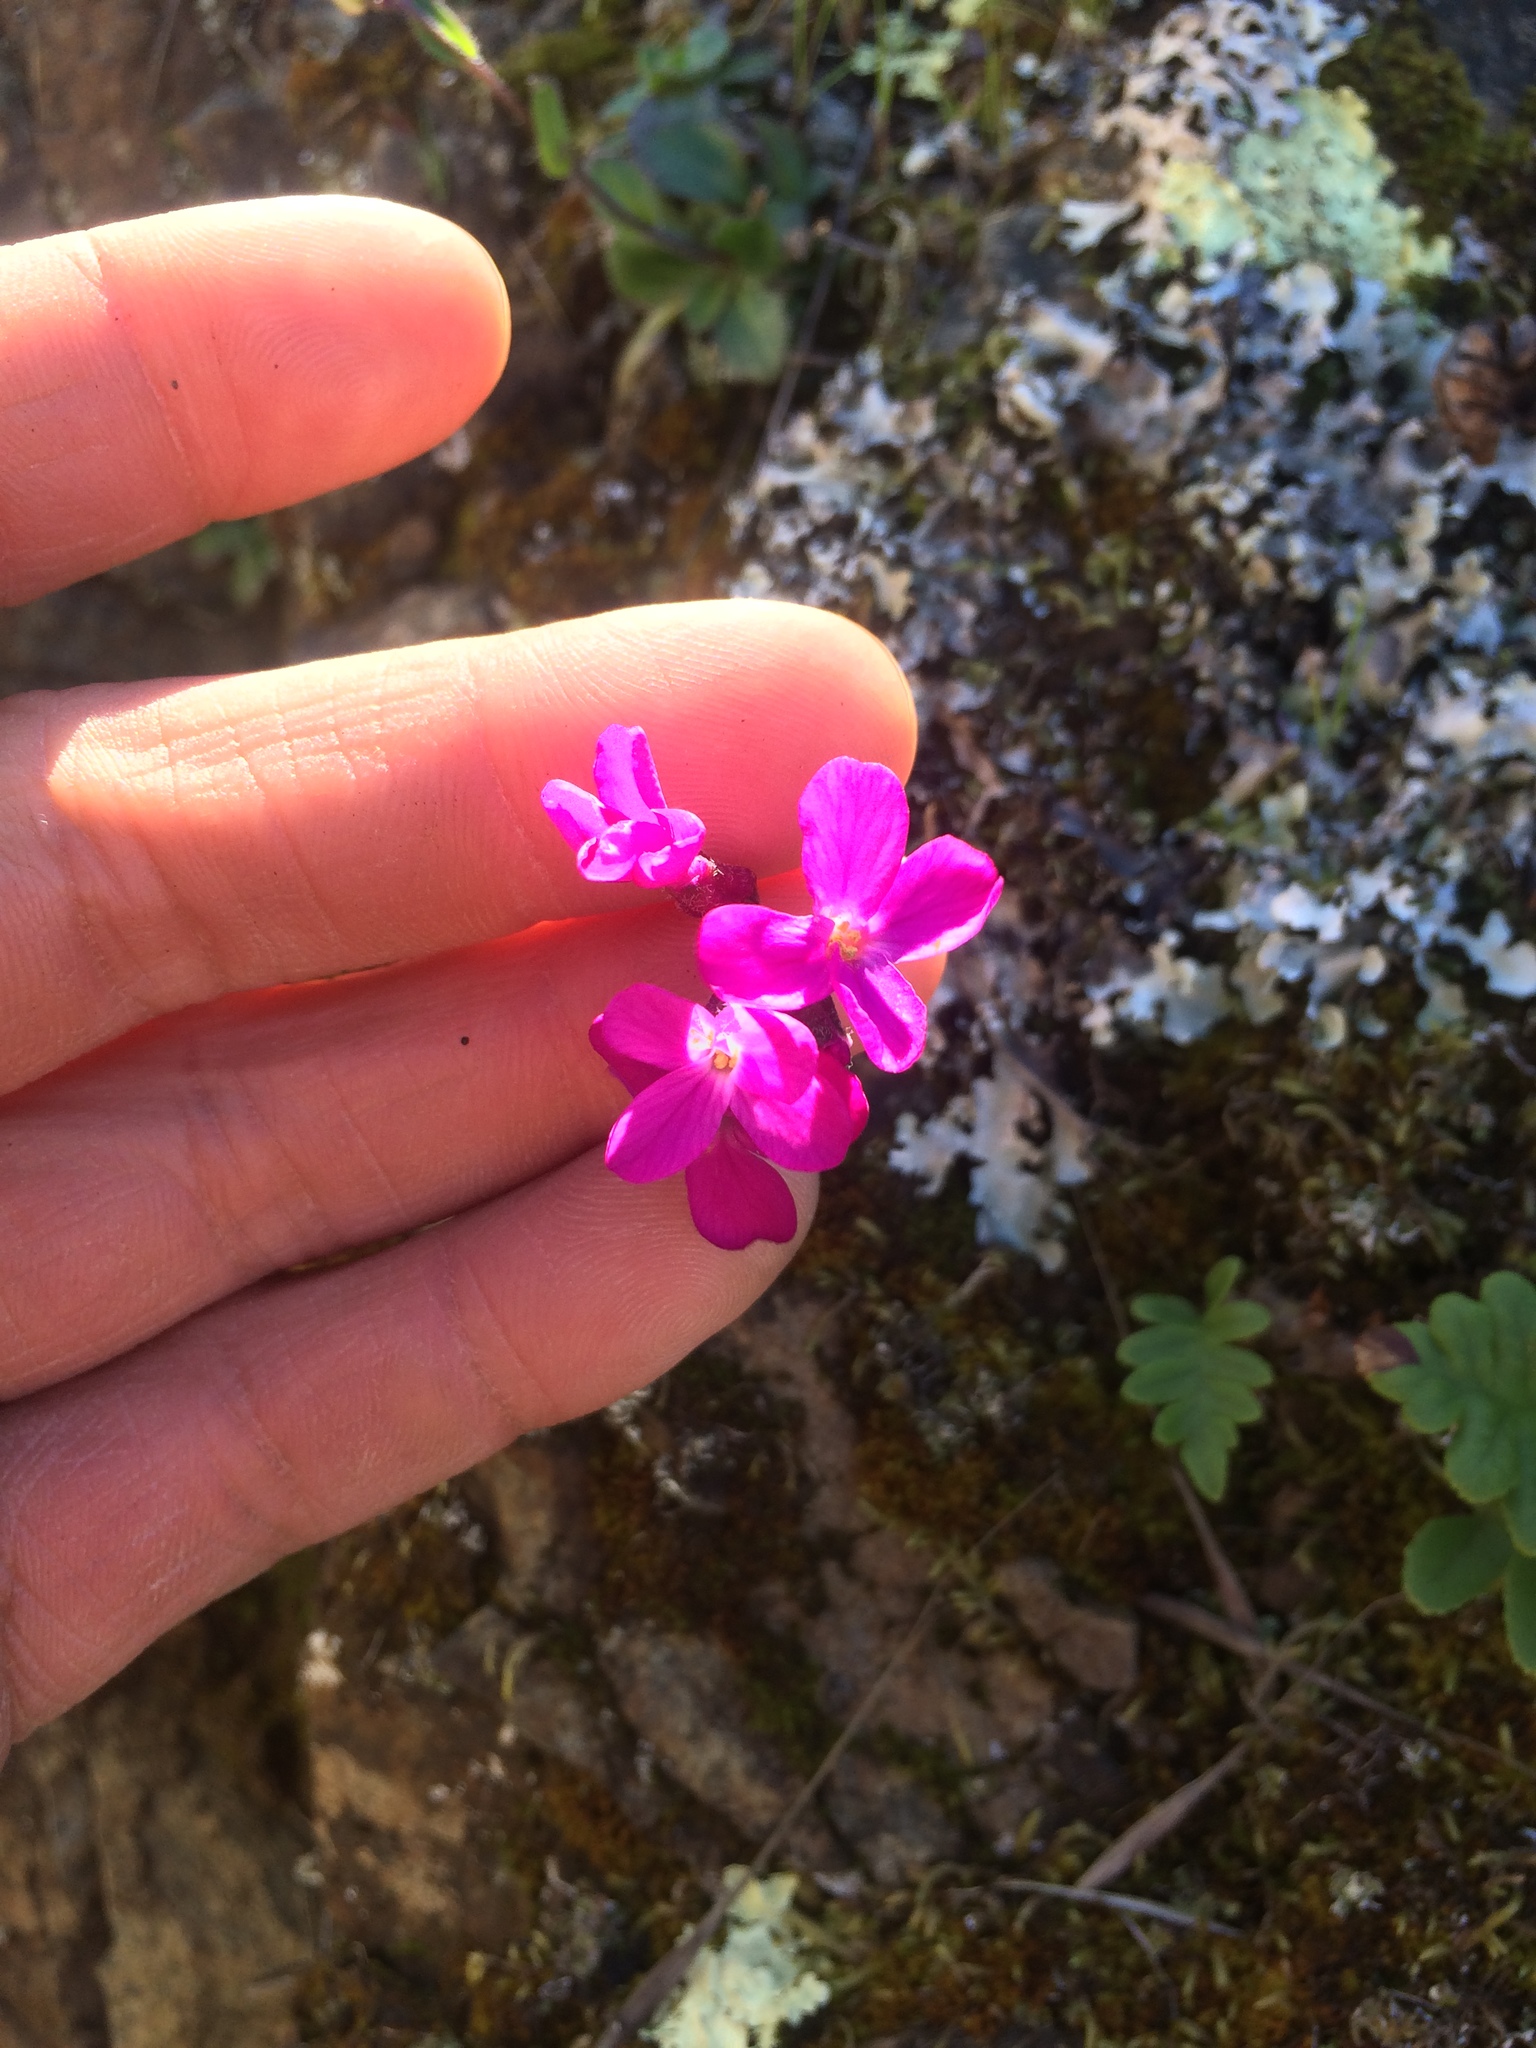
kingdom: Plantae
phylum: Tracheophyta
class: Magnoliopsida
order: Brassicales
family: Brassicaceae
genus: Arabis
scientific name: Arabis blepharophylla
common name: Rose rockcress
